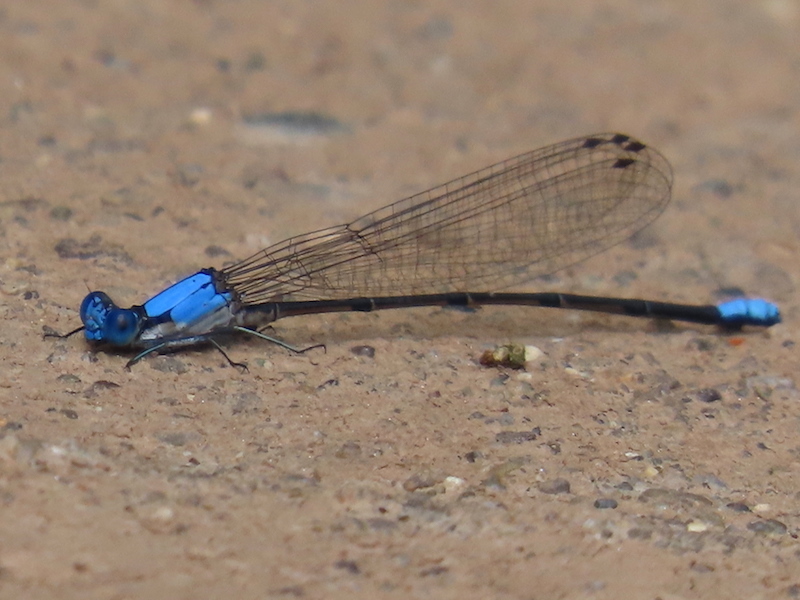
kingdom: Animalia
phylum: Arthropoda
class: Insecta
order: Odonata
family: Coenagrionidae
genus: Argia
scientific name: Argia apicalis
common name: Blue-fronted dancer
